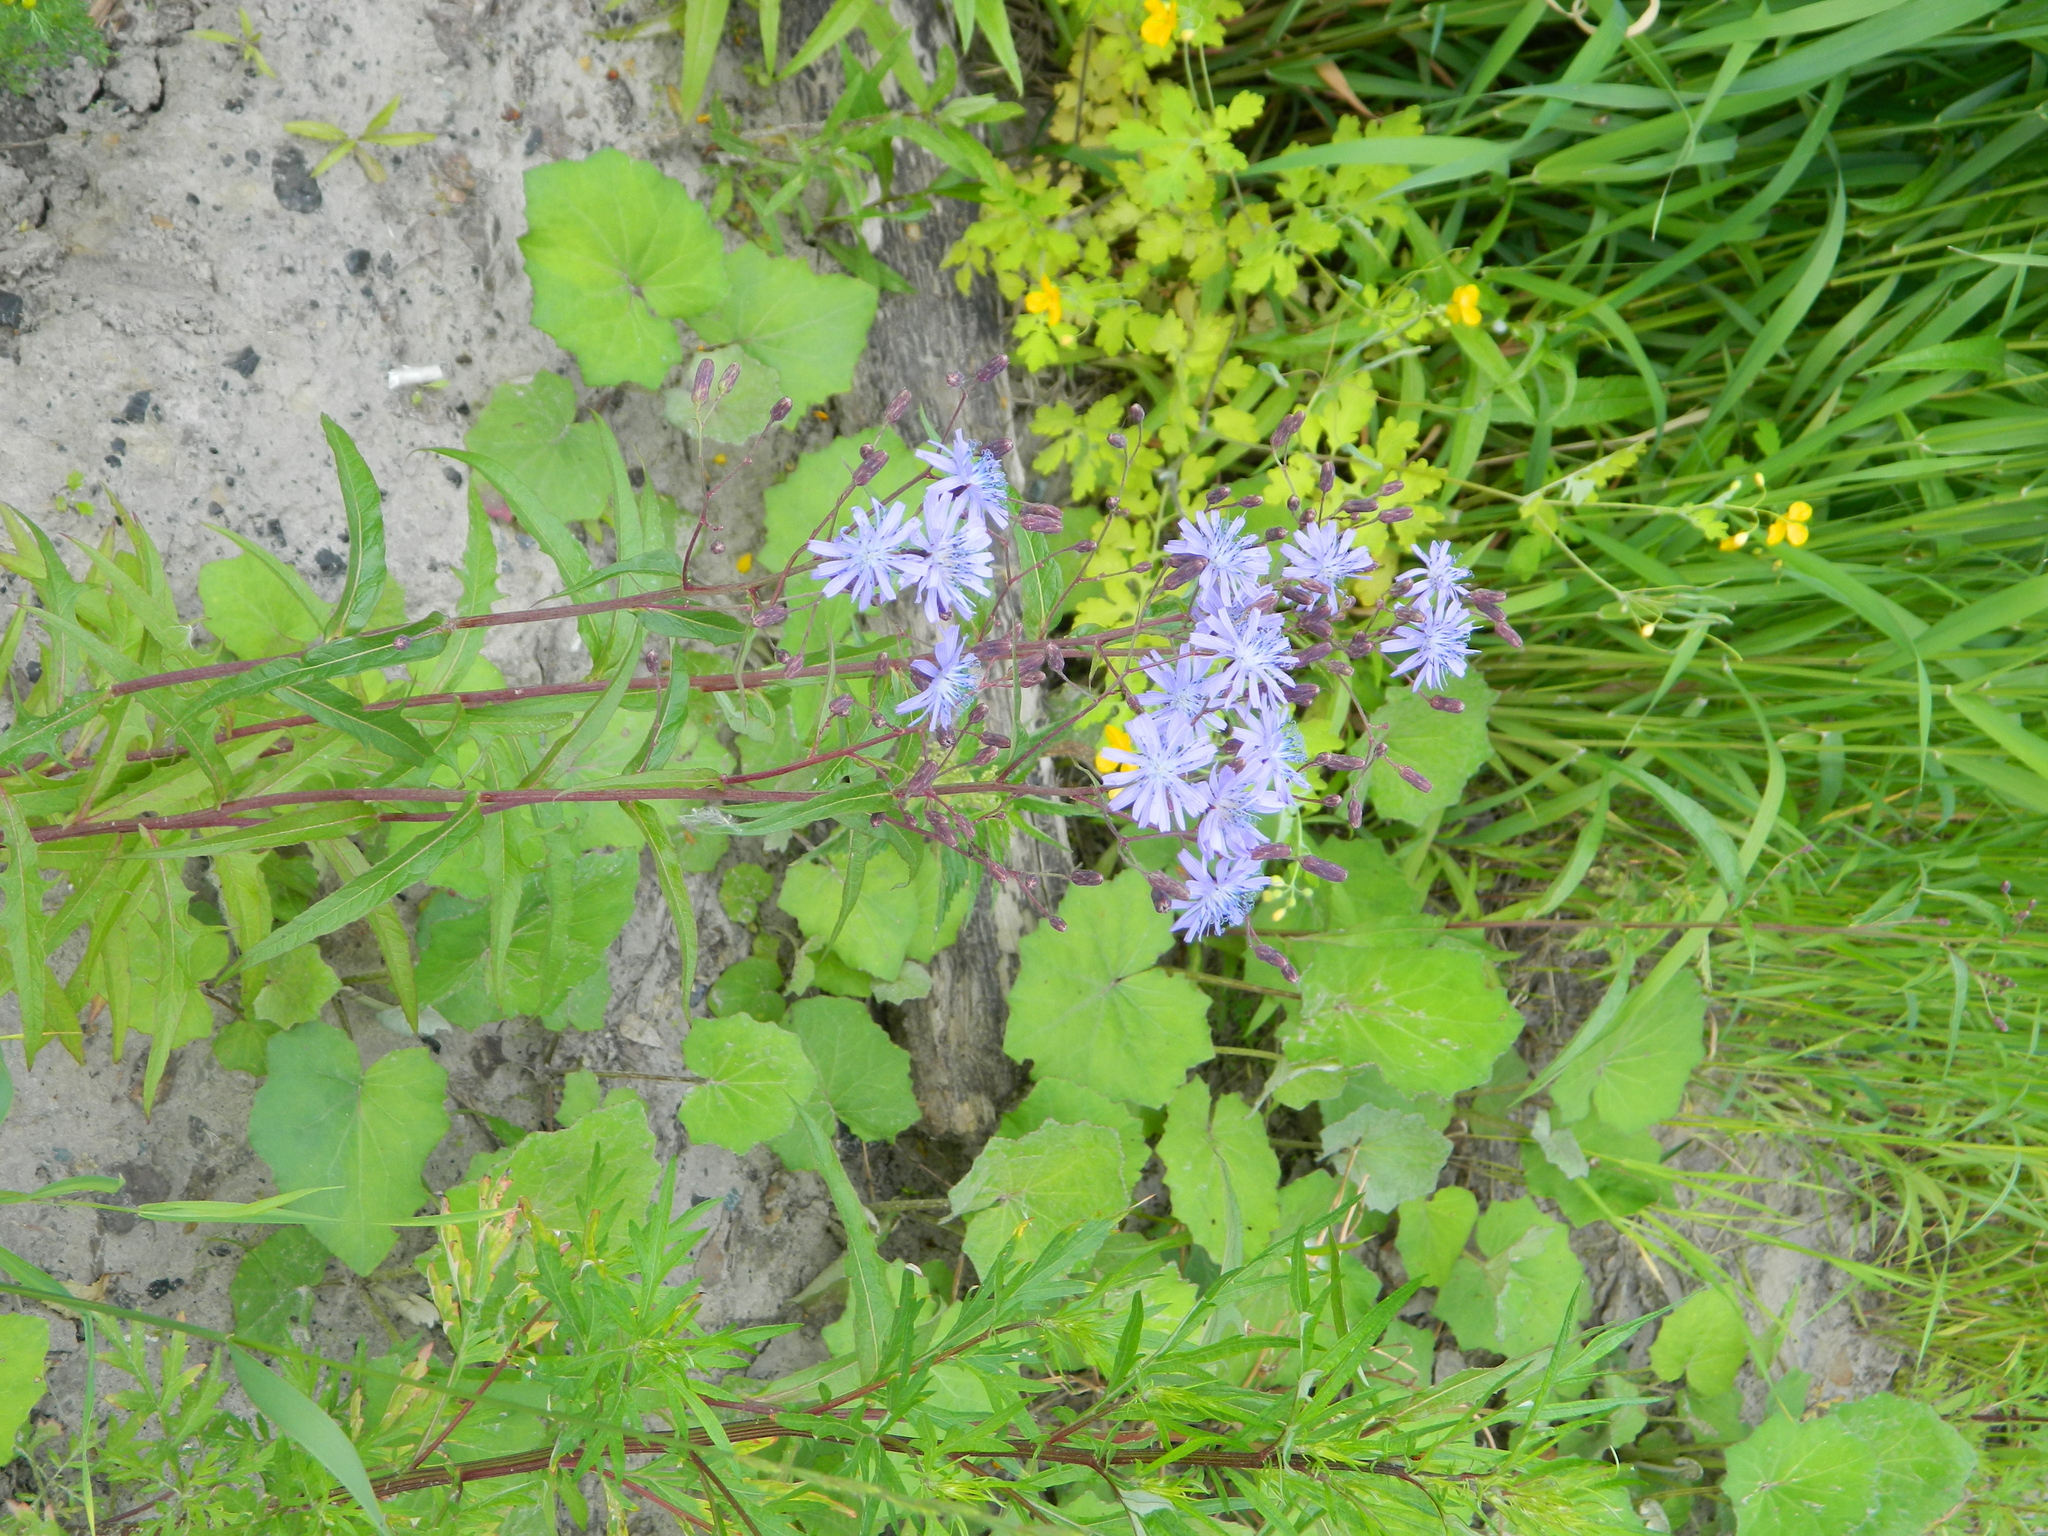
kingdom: Plantae
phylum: Tracheophyta
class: Magnoliopsida
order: Asterales
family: Asteraceae
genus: Lactuca
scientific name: Lactuca sibirica
